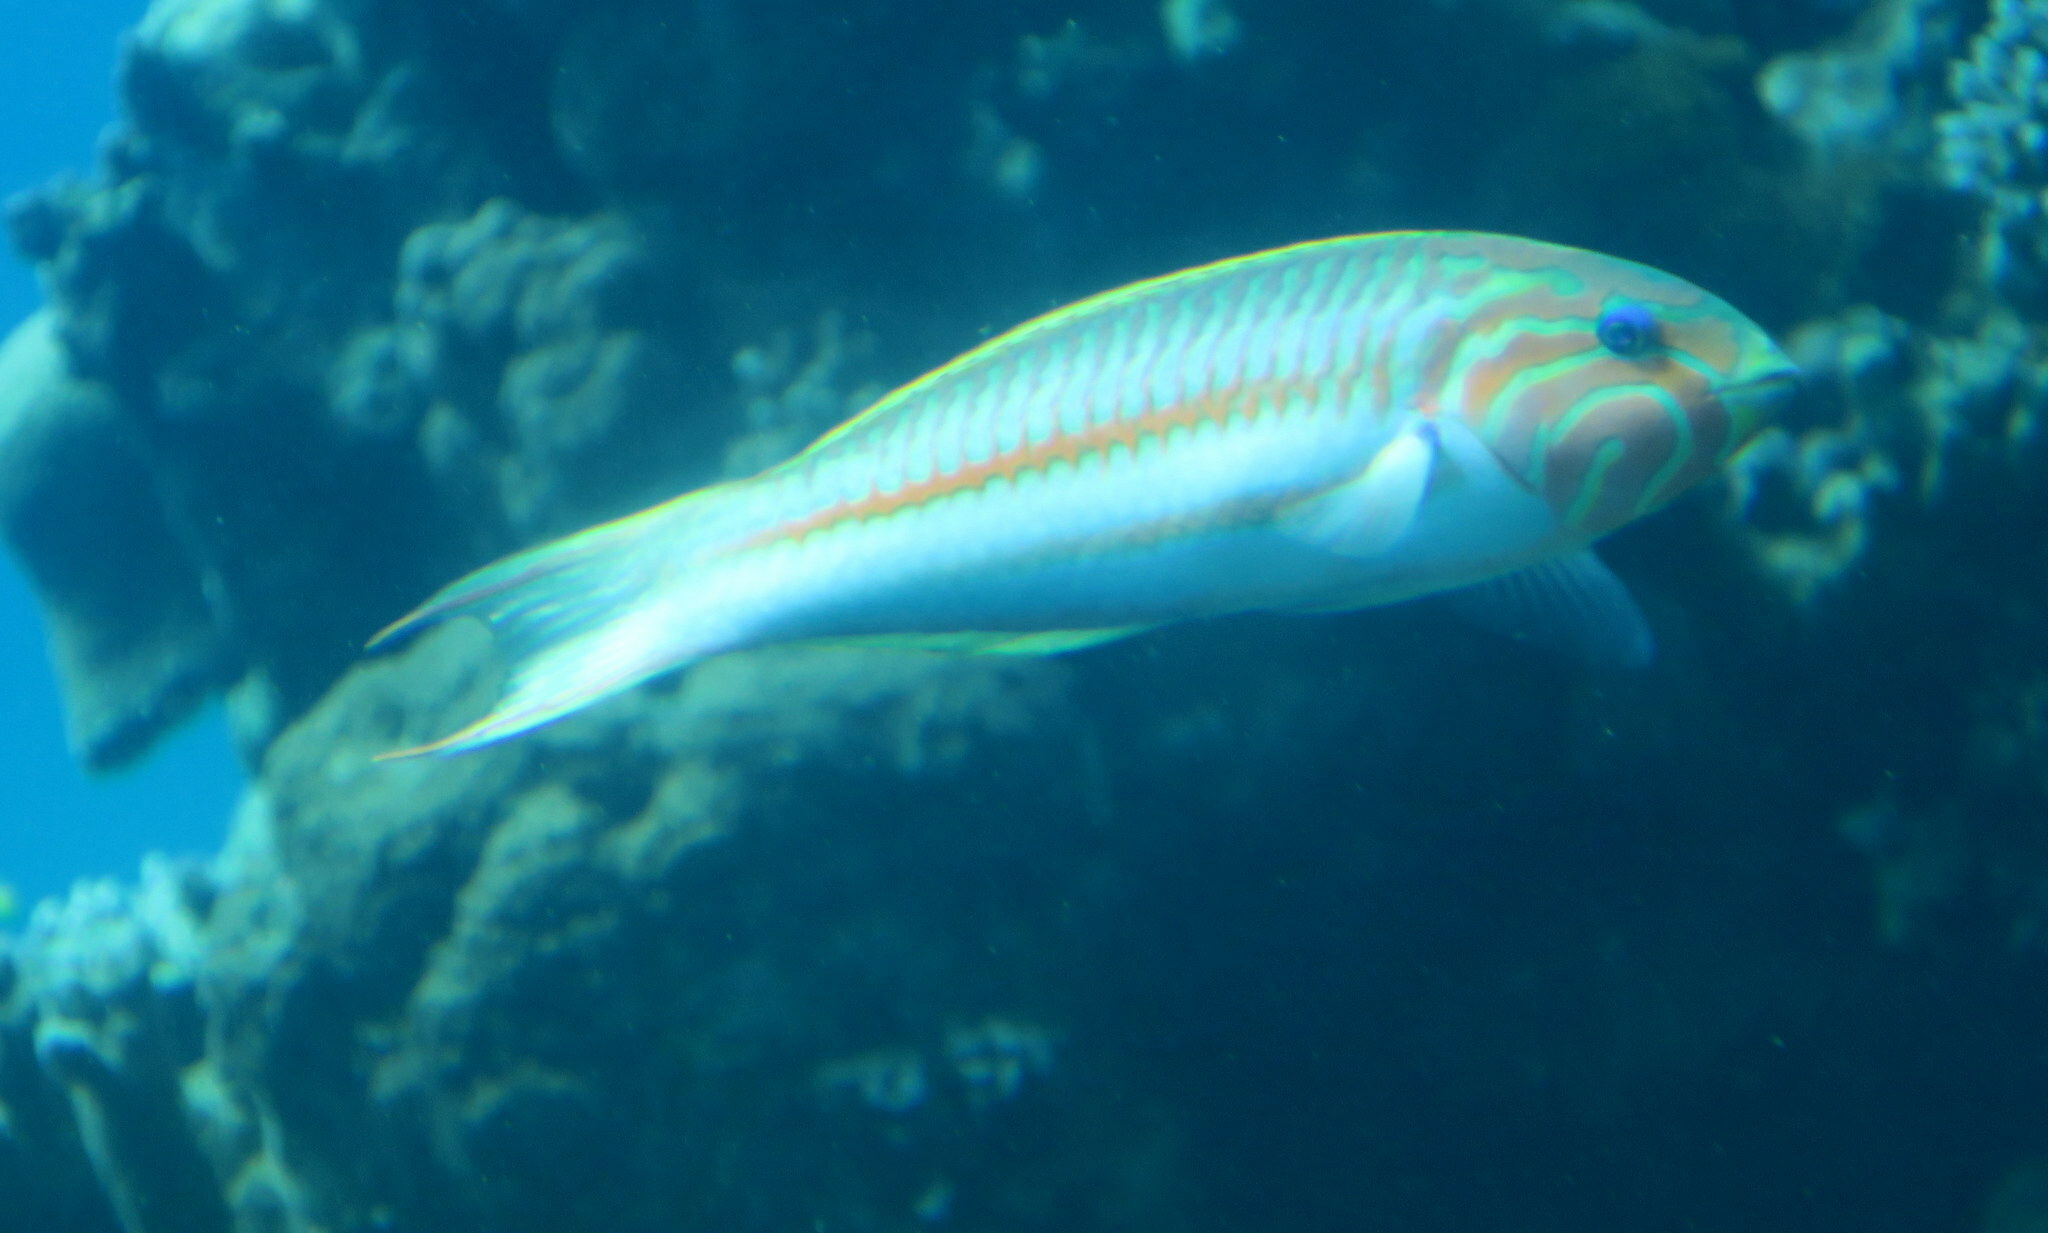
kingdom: Animalia
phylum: Chordata
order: Perciformes
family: Labridae
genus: Thalassoma
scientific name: Thalassoma rueppellii
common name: Klunzinger's wrasse
